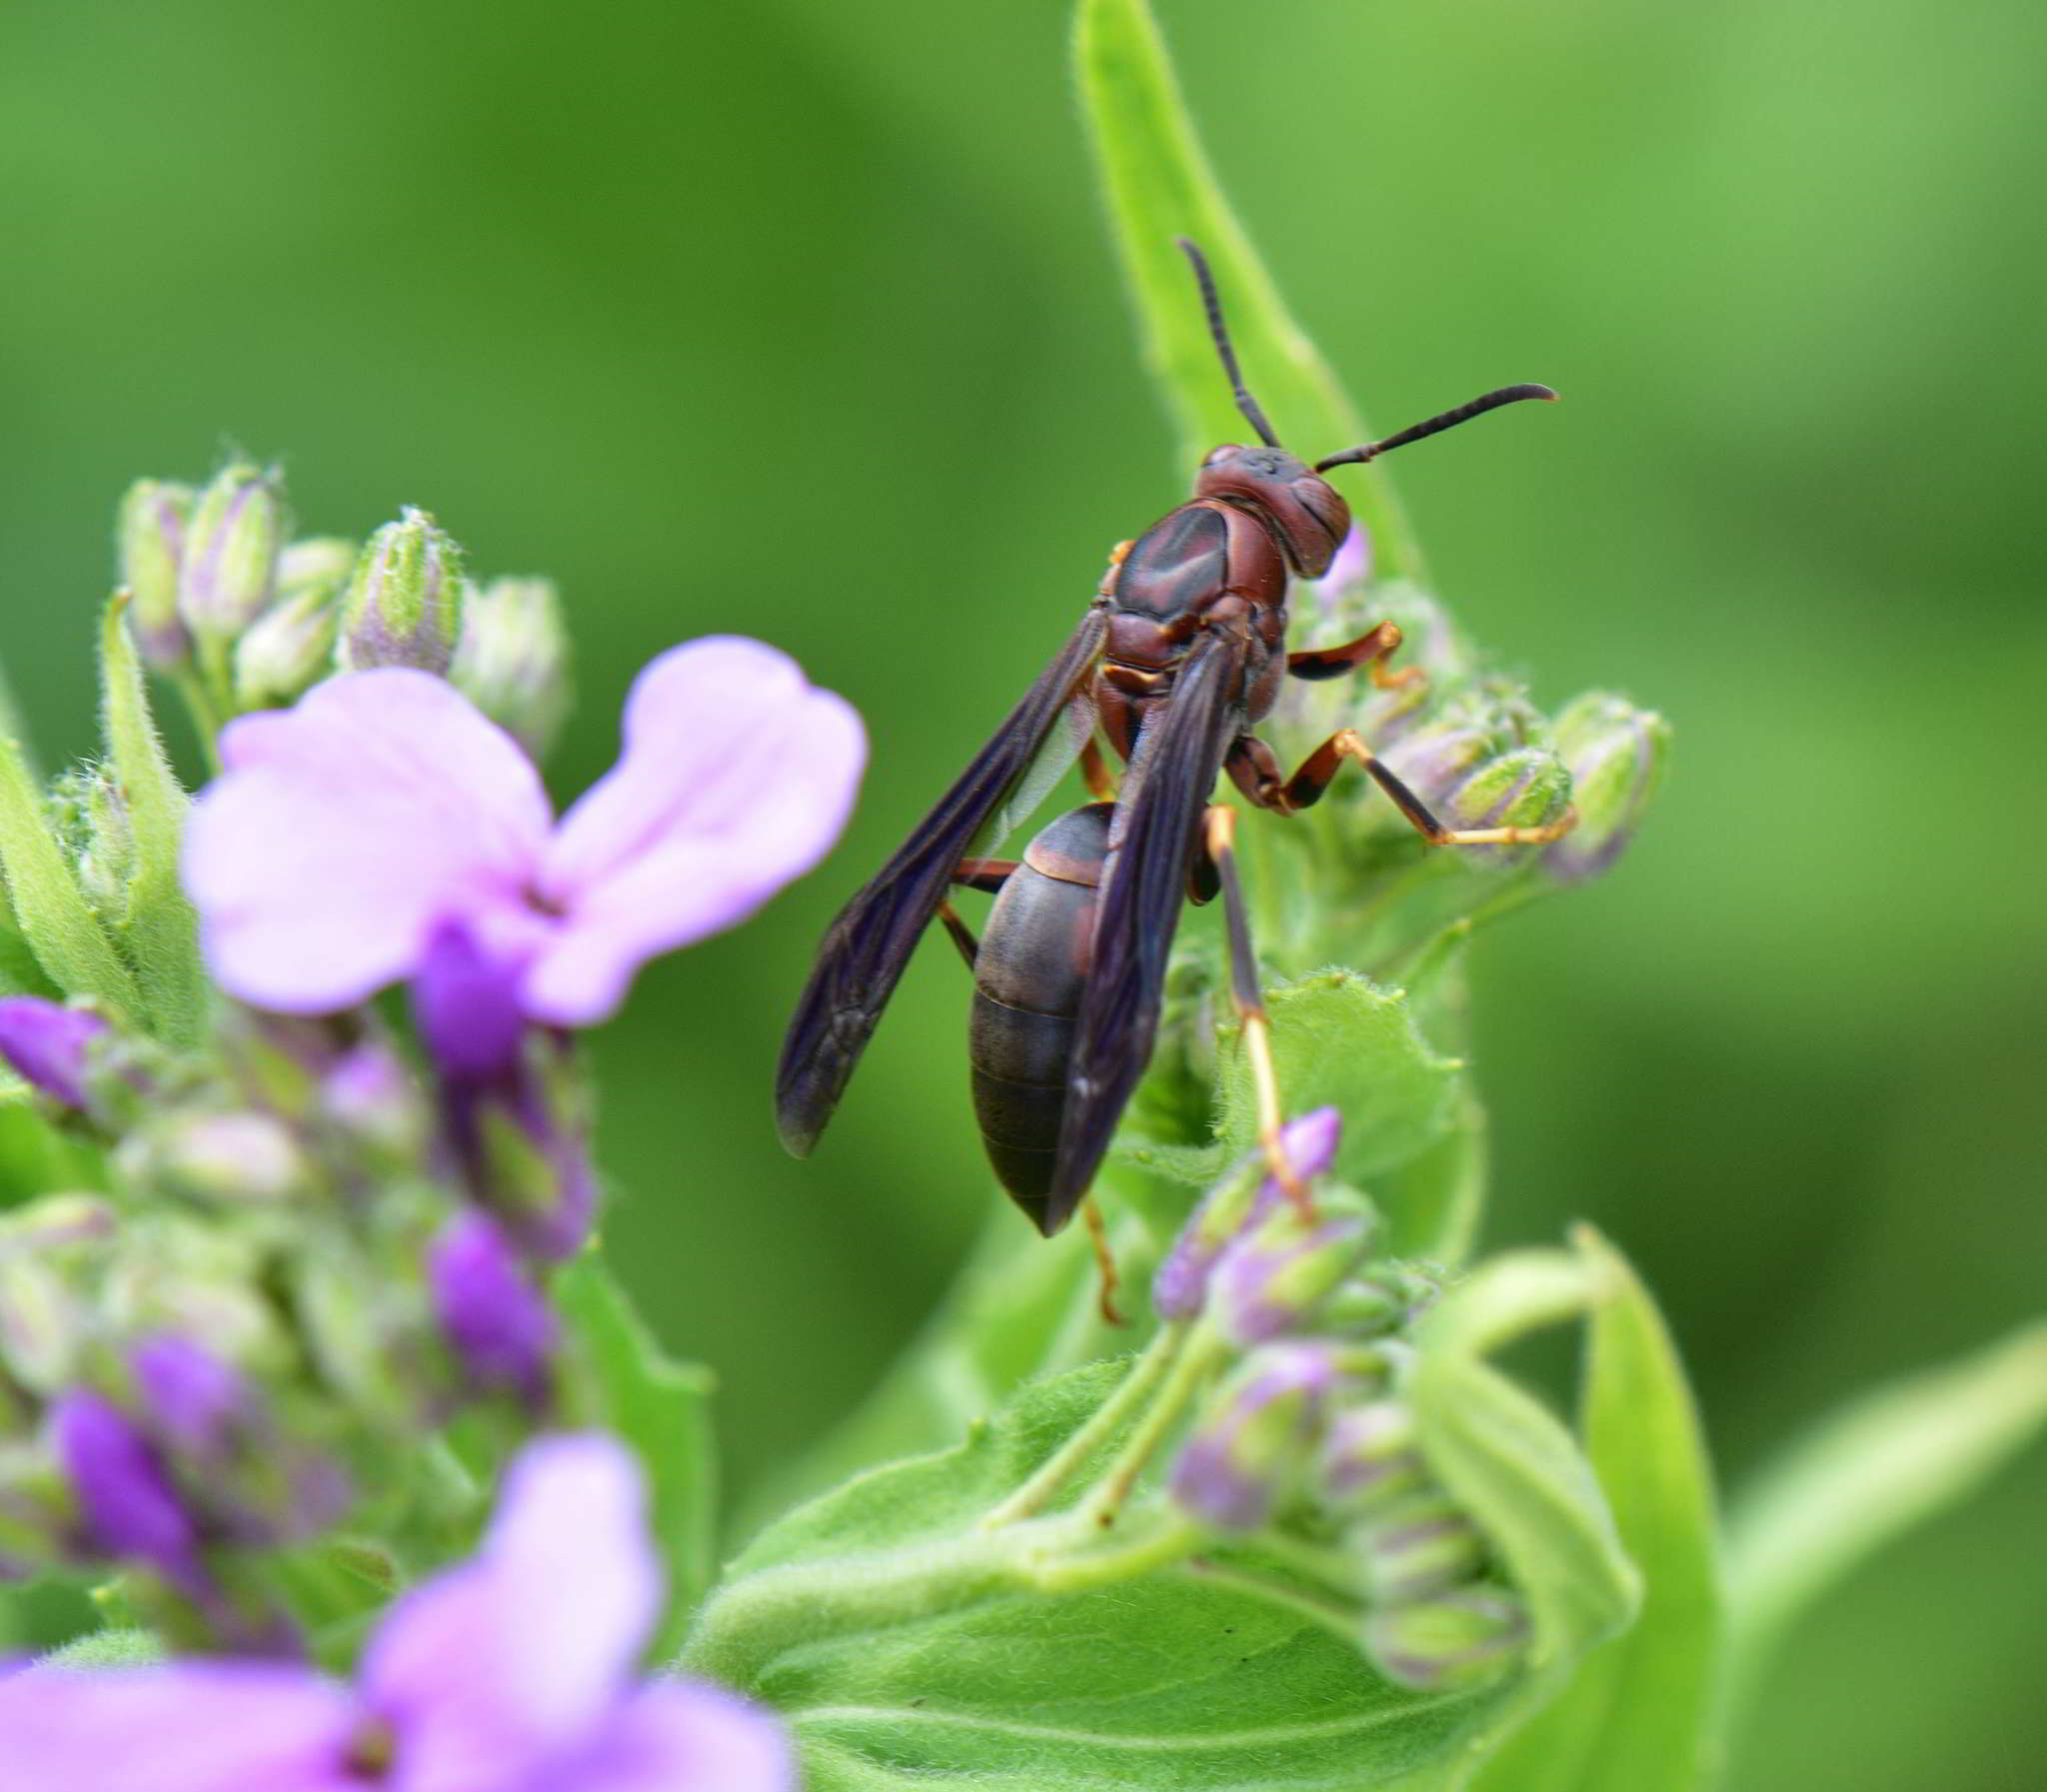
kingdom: Animalia
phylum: Arthropoda
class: Insecta
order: Hymenoptera
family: Eumenidae
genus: Polistes
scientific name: Polistes metricus
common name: Metric paper wasp
